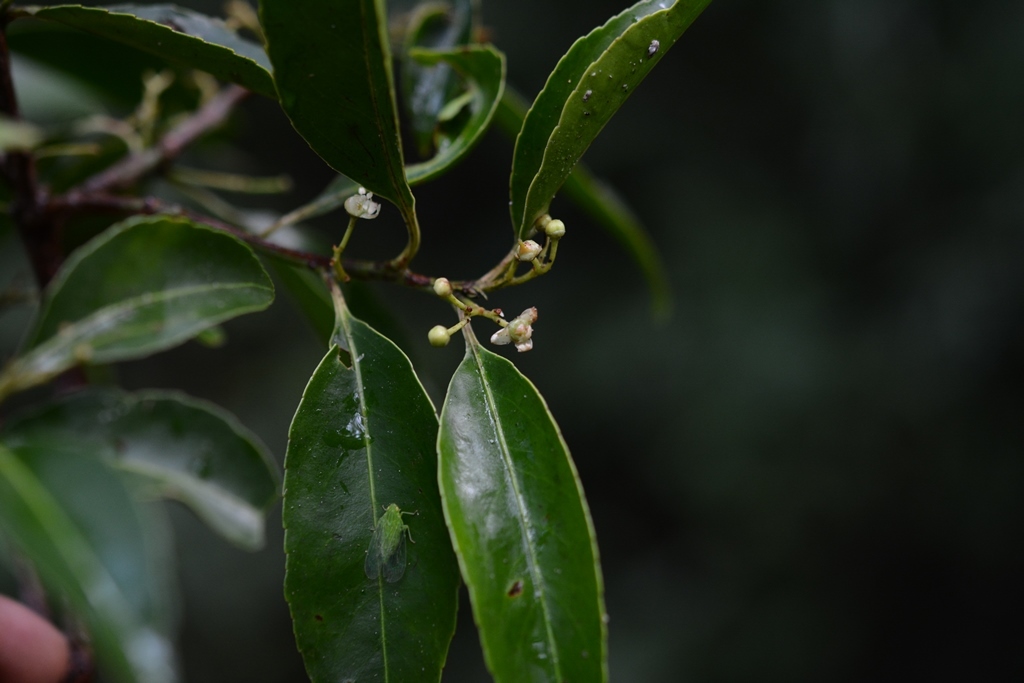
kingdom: Plantae
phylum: Tracheophyta
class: Magnoliopsida
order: Celastrales
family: Celastraceae
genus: Monteverdia
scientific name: Monteverdia chiapensis
